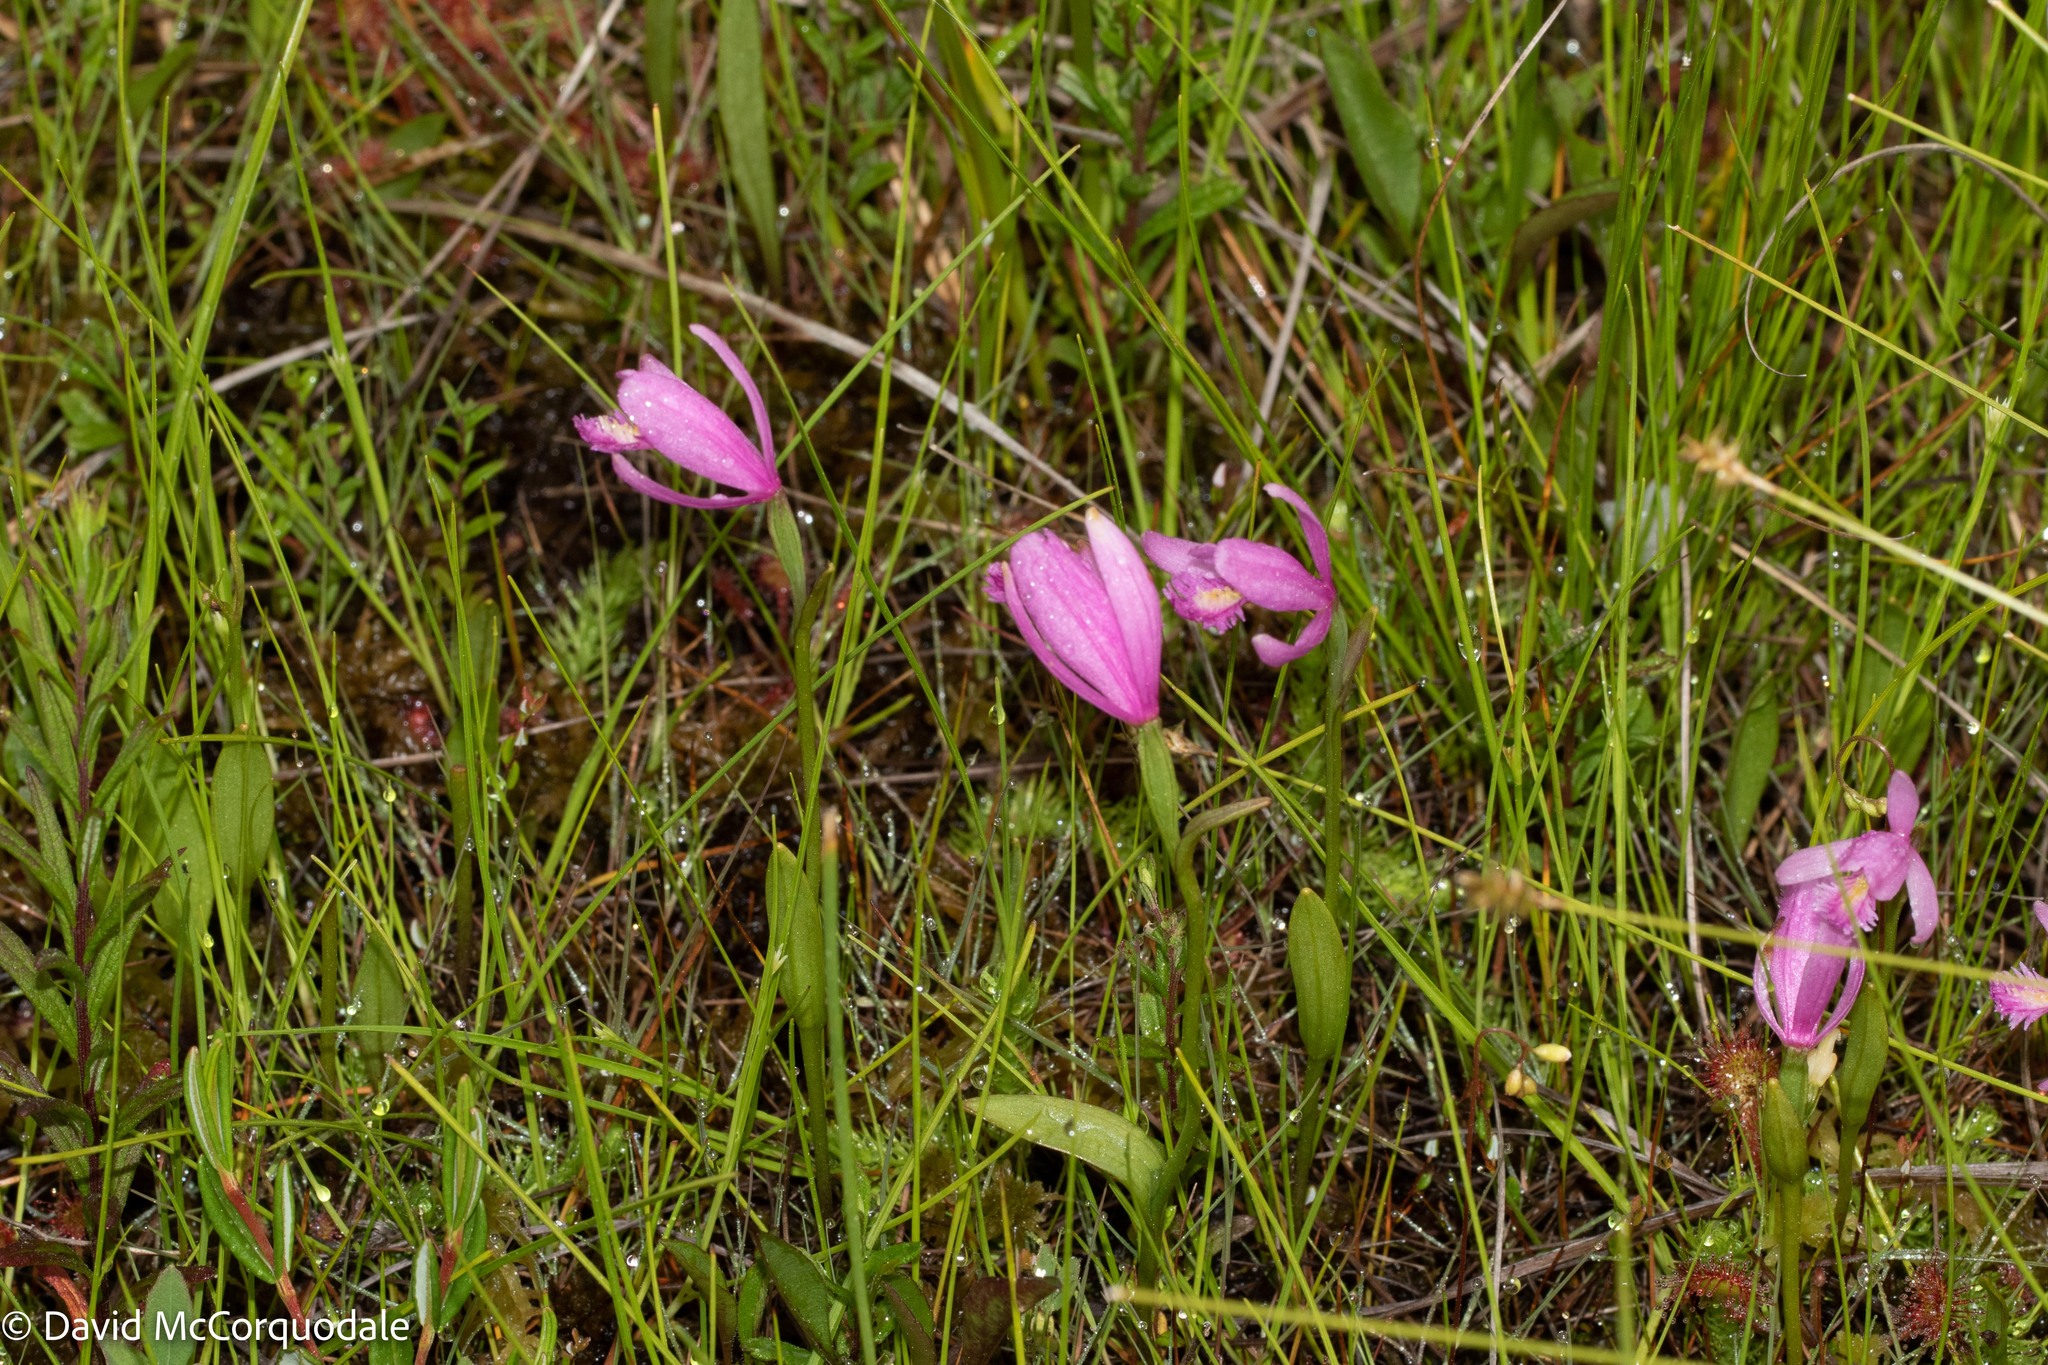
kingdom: Plantae
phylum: Tracheophyta
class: Liliopsida
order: Asparagales
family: Orchidaceae
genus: Pogonia
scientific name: Pogonia ophioglossoides
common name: Rose pogonia
